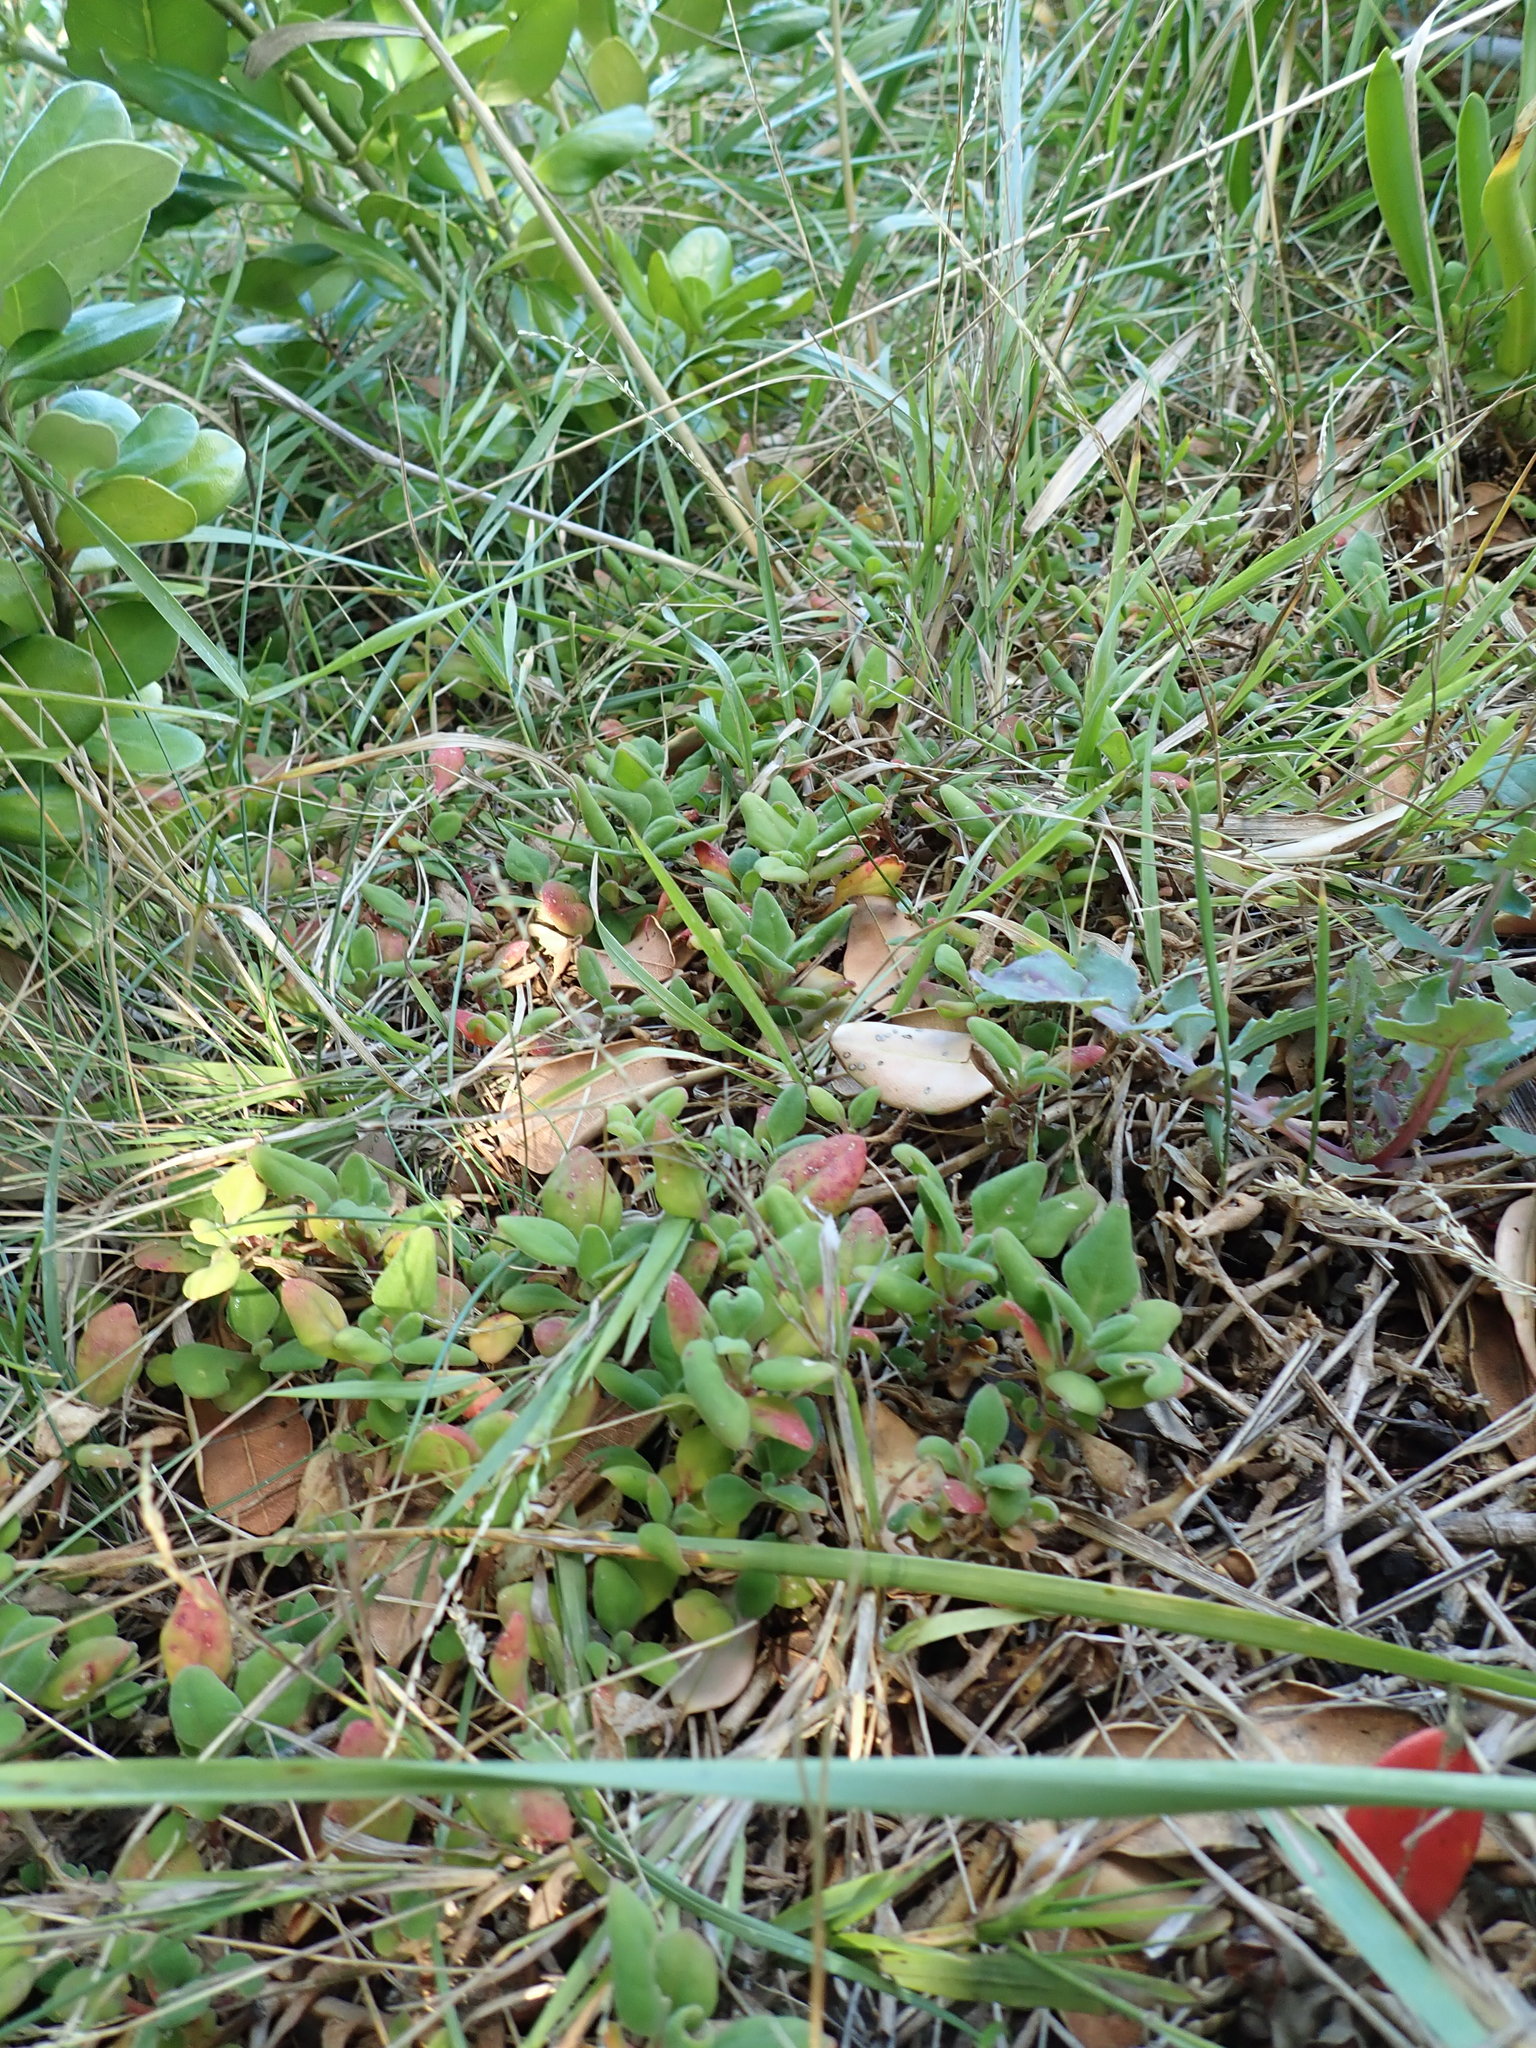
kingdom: Plantae
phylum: Tracheophyta
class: Magnoliopsida
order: Caryophyllales
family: Aizoaceae
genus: Tetragonia
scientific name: Tetragonia implexicoma
